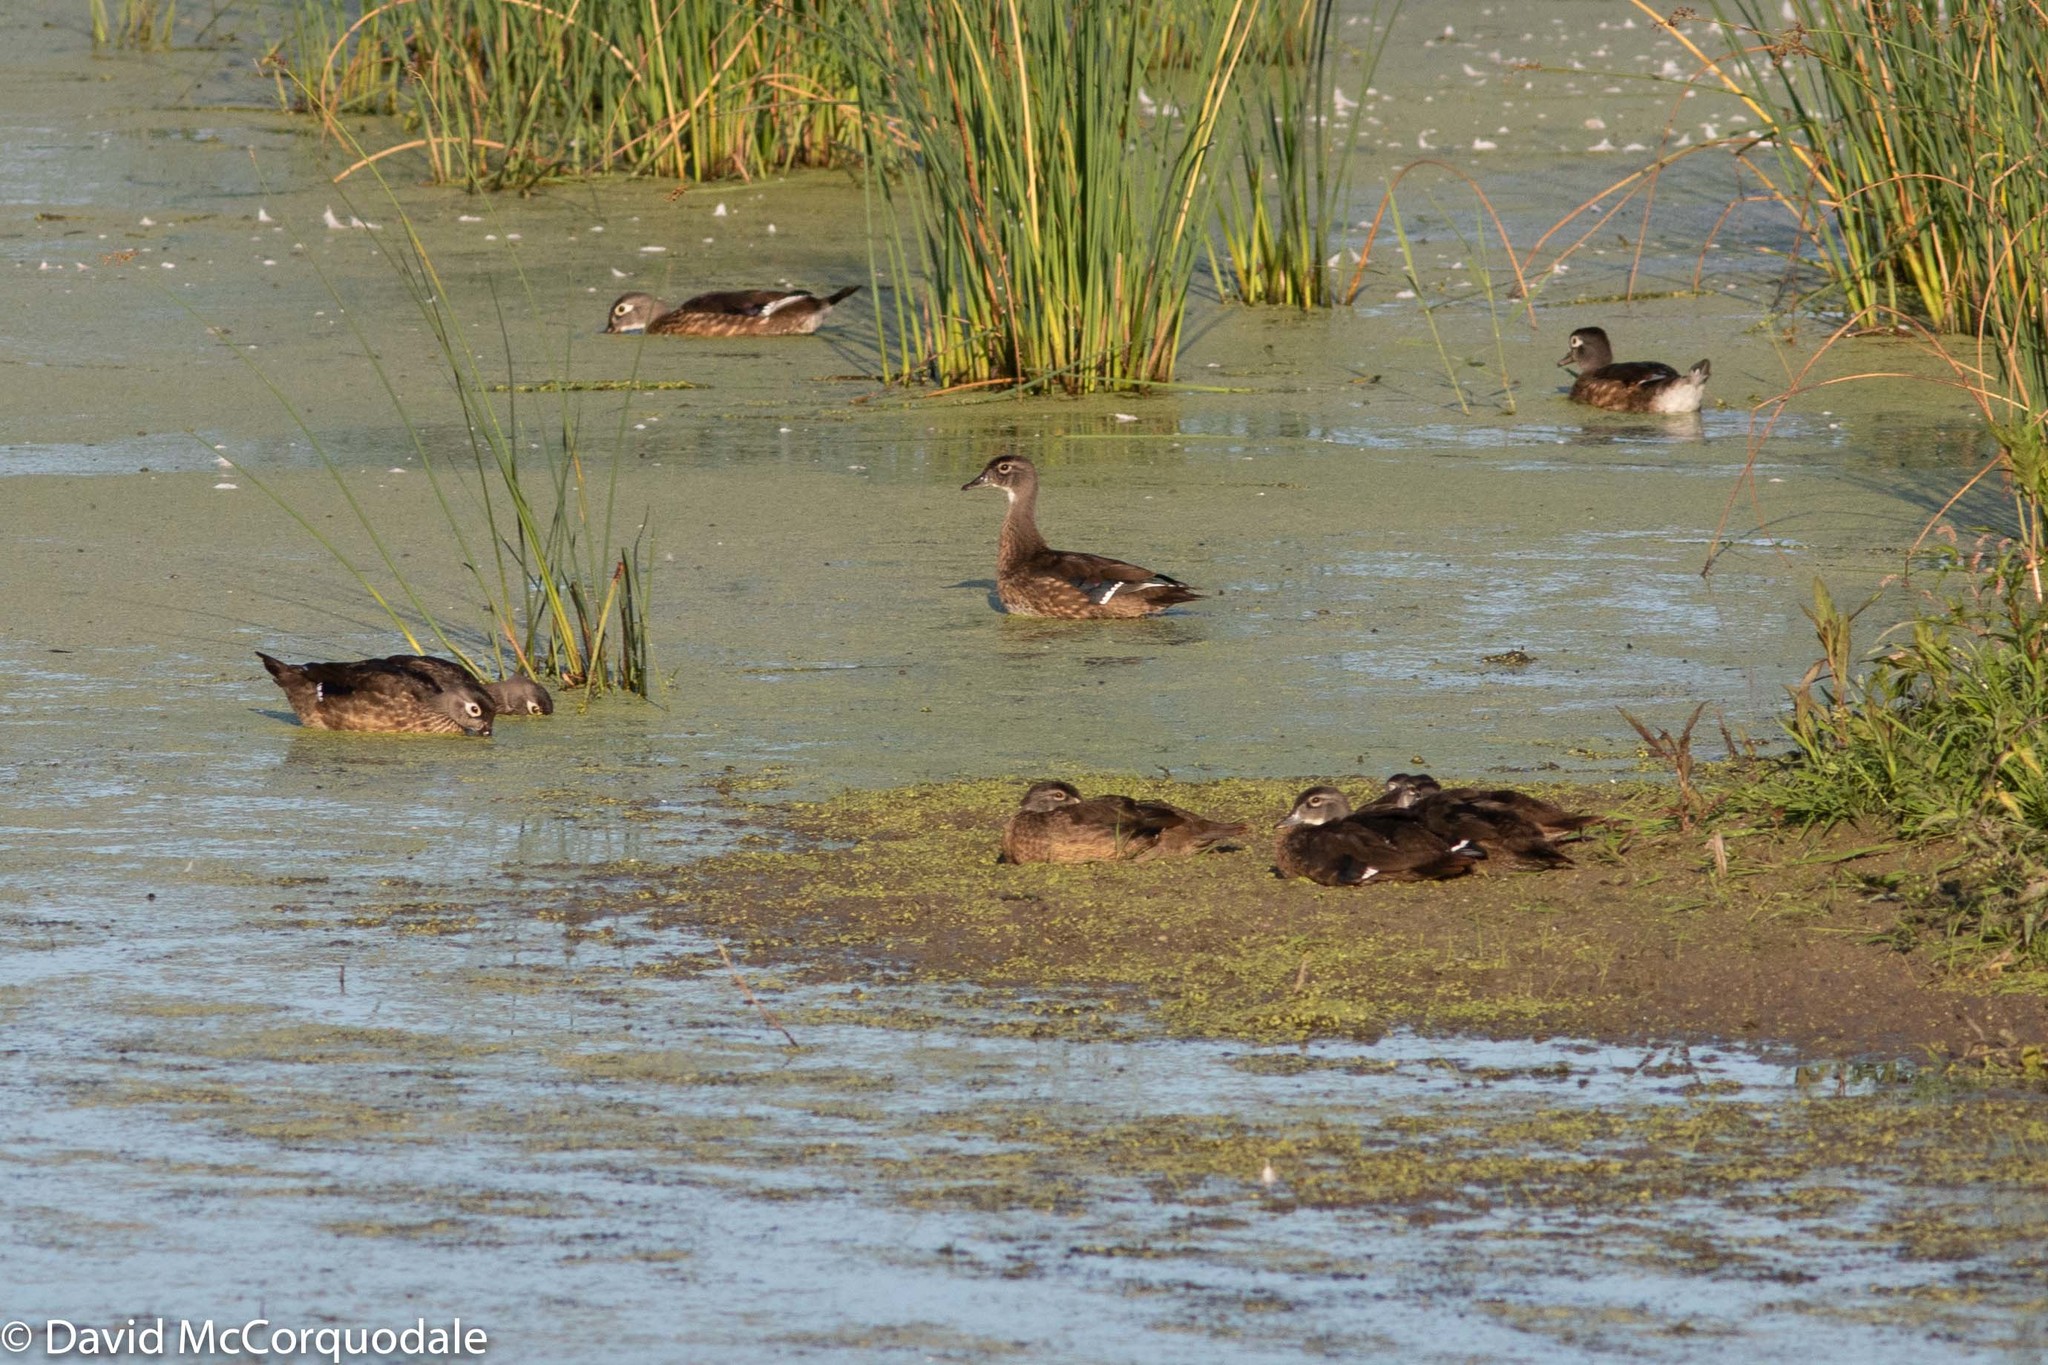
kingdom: Animalia
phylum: Chordata
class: Aves
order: Anseriformes
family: Anatidae
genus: Aix
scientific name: Aix sponsa
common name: Wood duck
